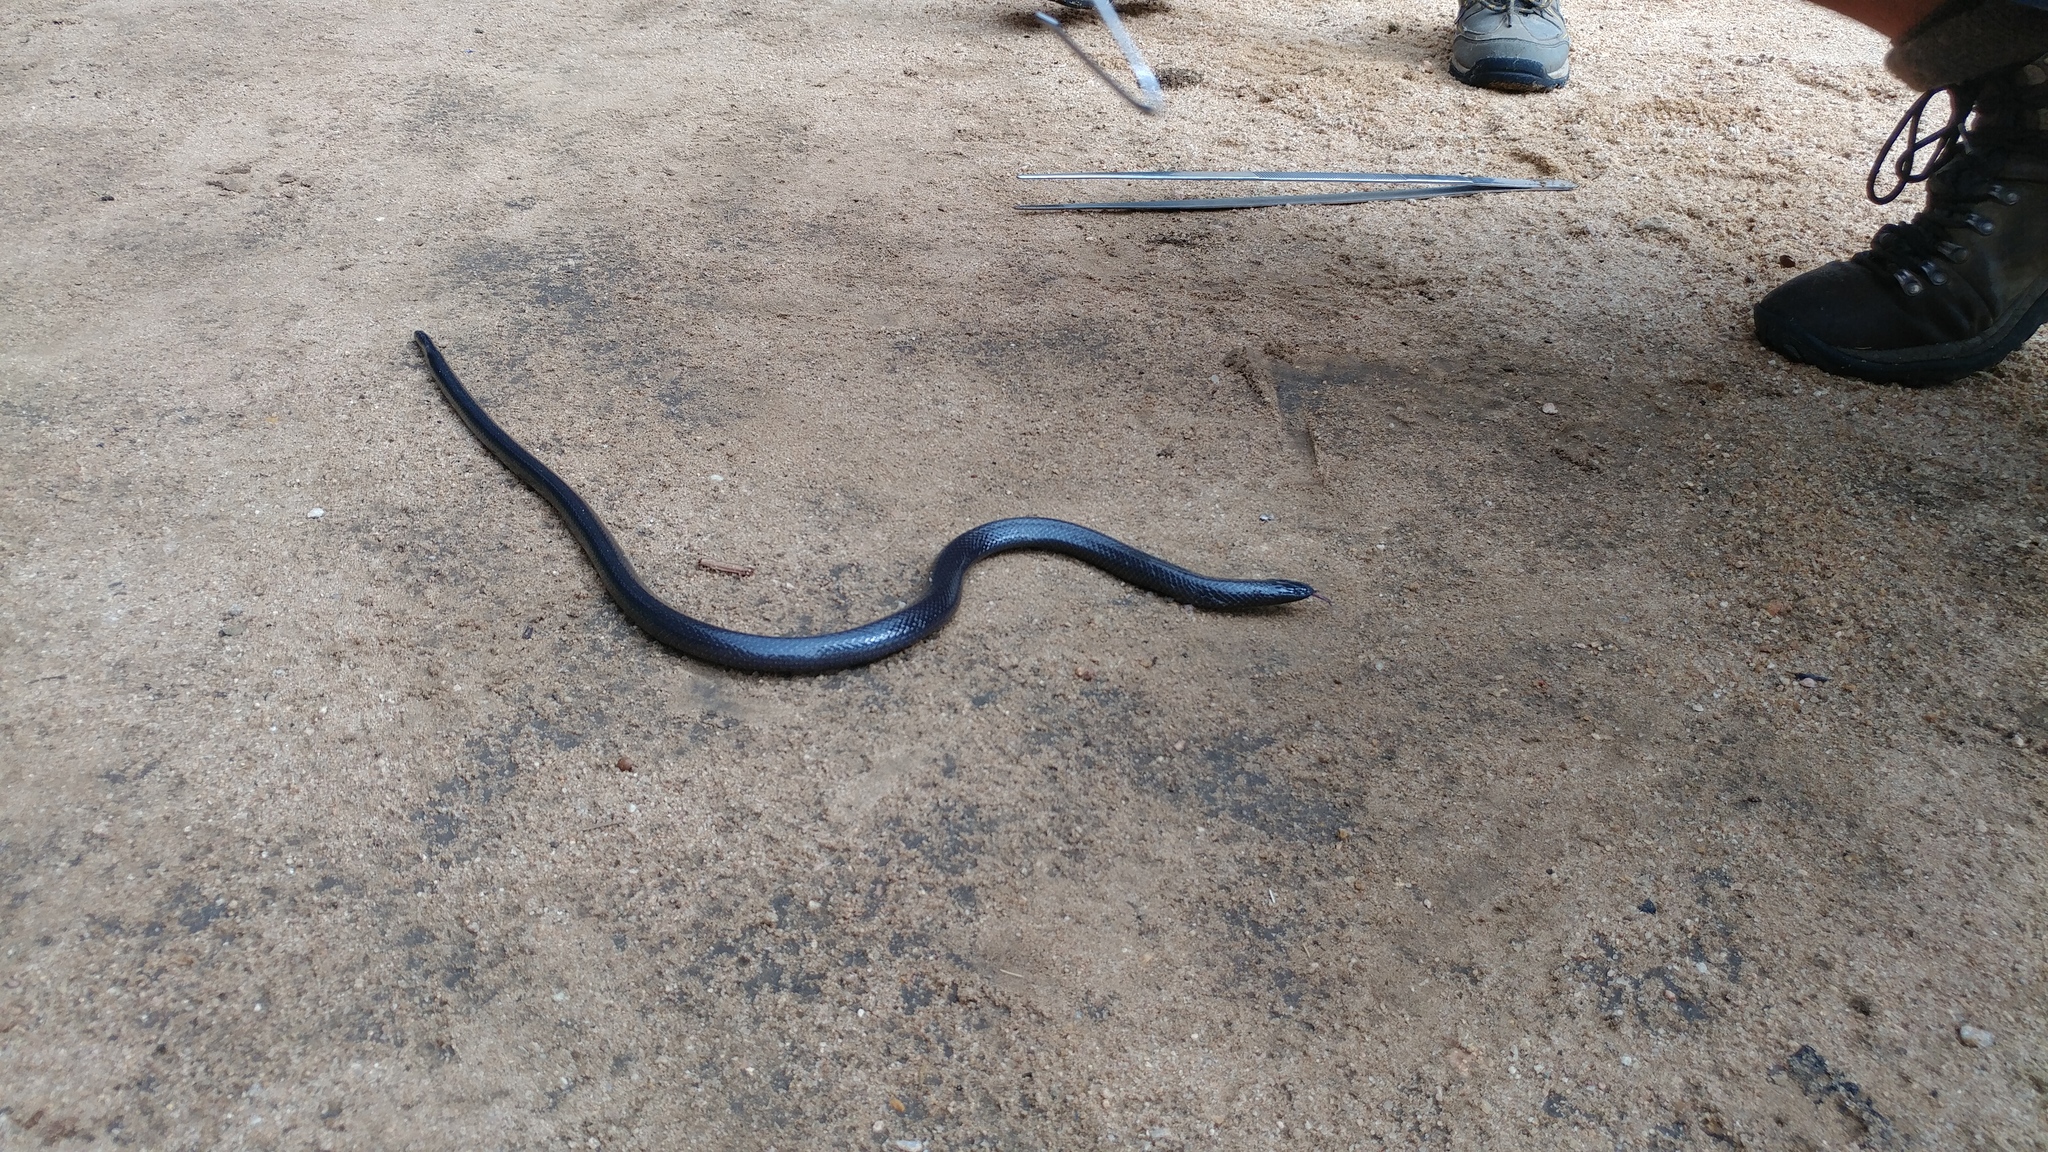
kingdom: Animalia
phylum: Chordata
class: Squamata
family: Atractaspididae
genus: Amblyodipsas
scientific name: Amblyodipsas polylepis
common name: Common purple-glossed snake
